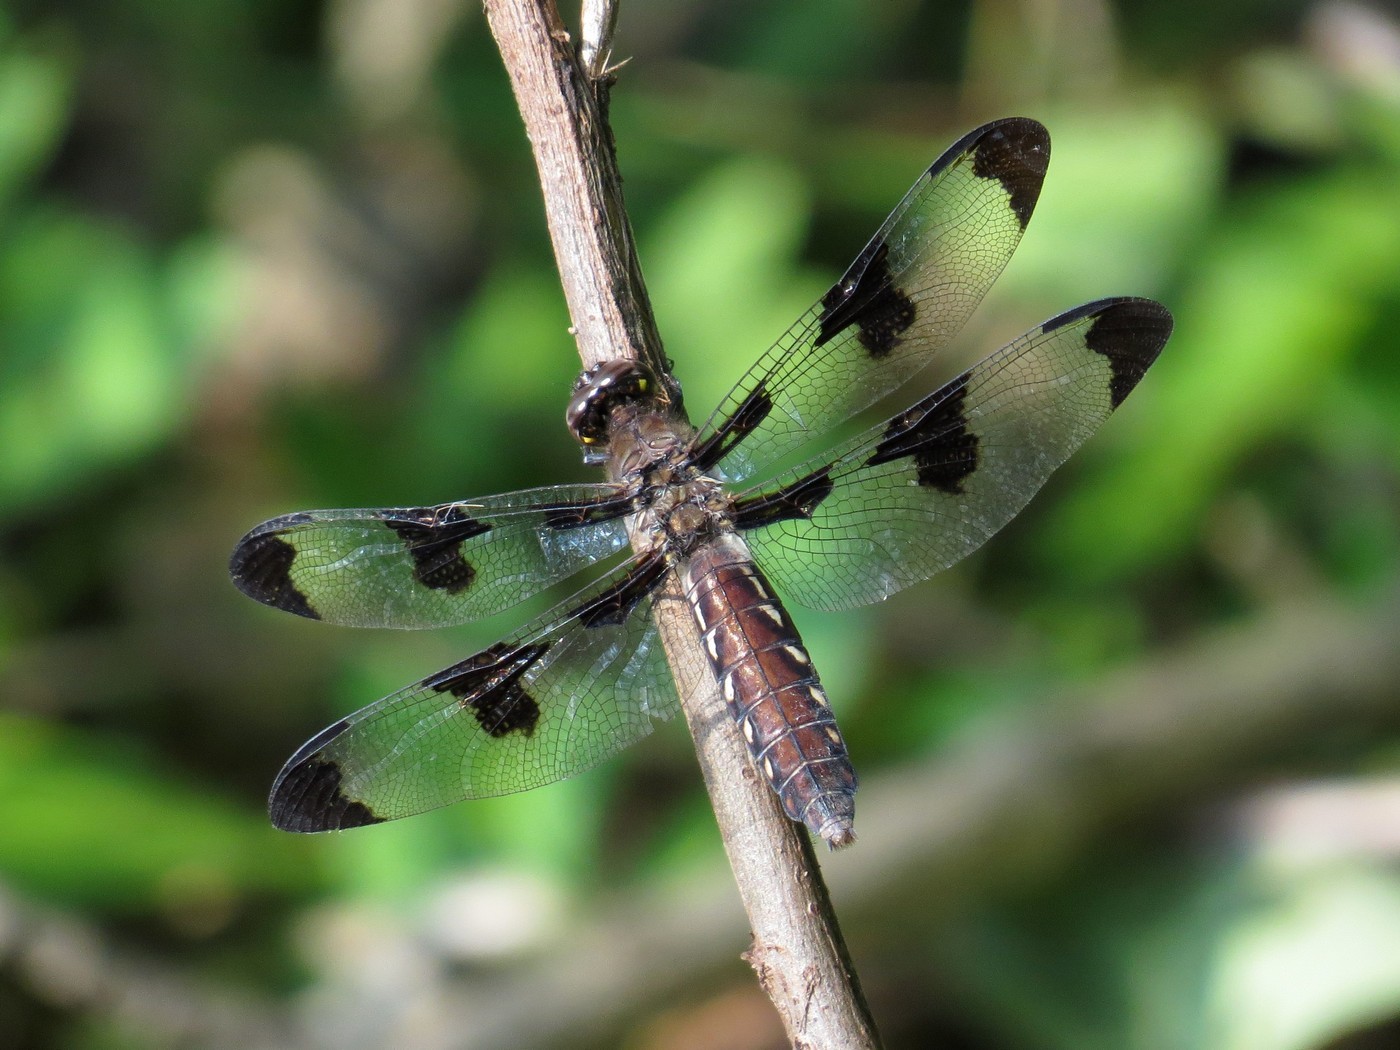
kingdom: Animalia
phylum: Arthropoda
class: Insecta
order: Odonata
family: Libellulidae
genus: Plathemis
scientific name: Plathemis lydia
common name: Common whitetail
